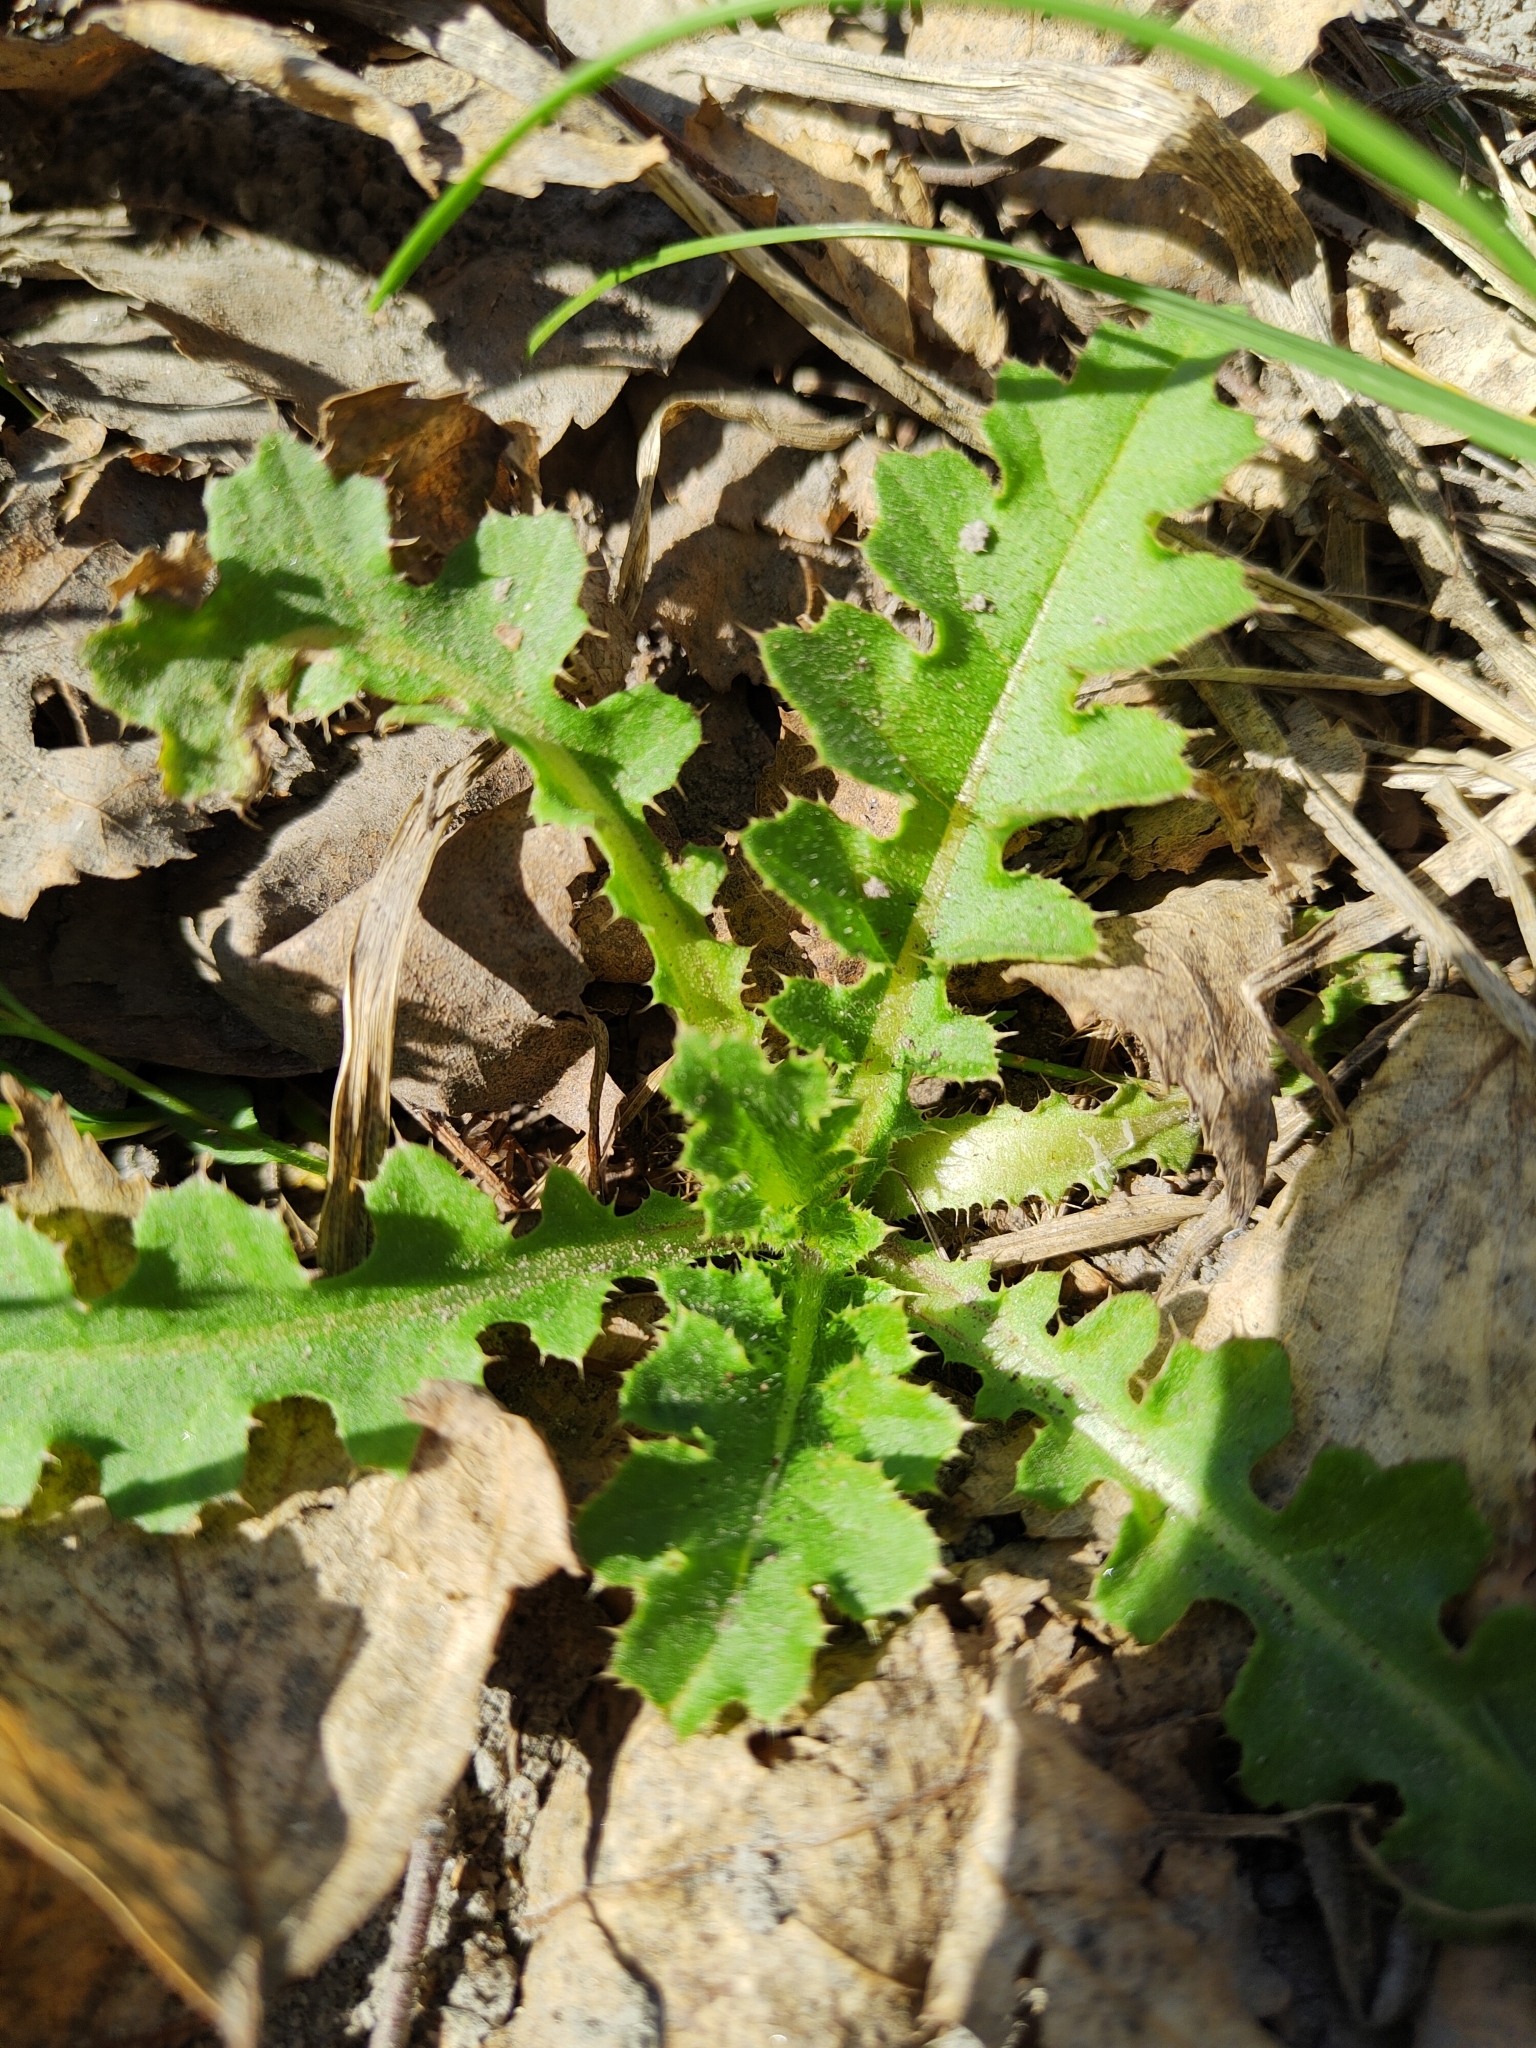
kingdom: Plantae
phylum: Tracheophyta
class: Magnoliopsida
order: Asterales
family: Asteraceae
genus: Carduus
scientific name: Carduus crispus
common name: Welted thistle
